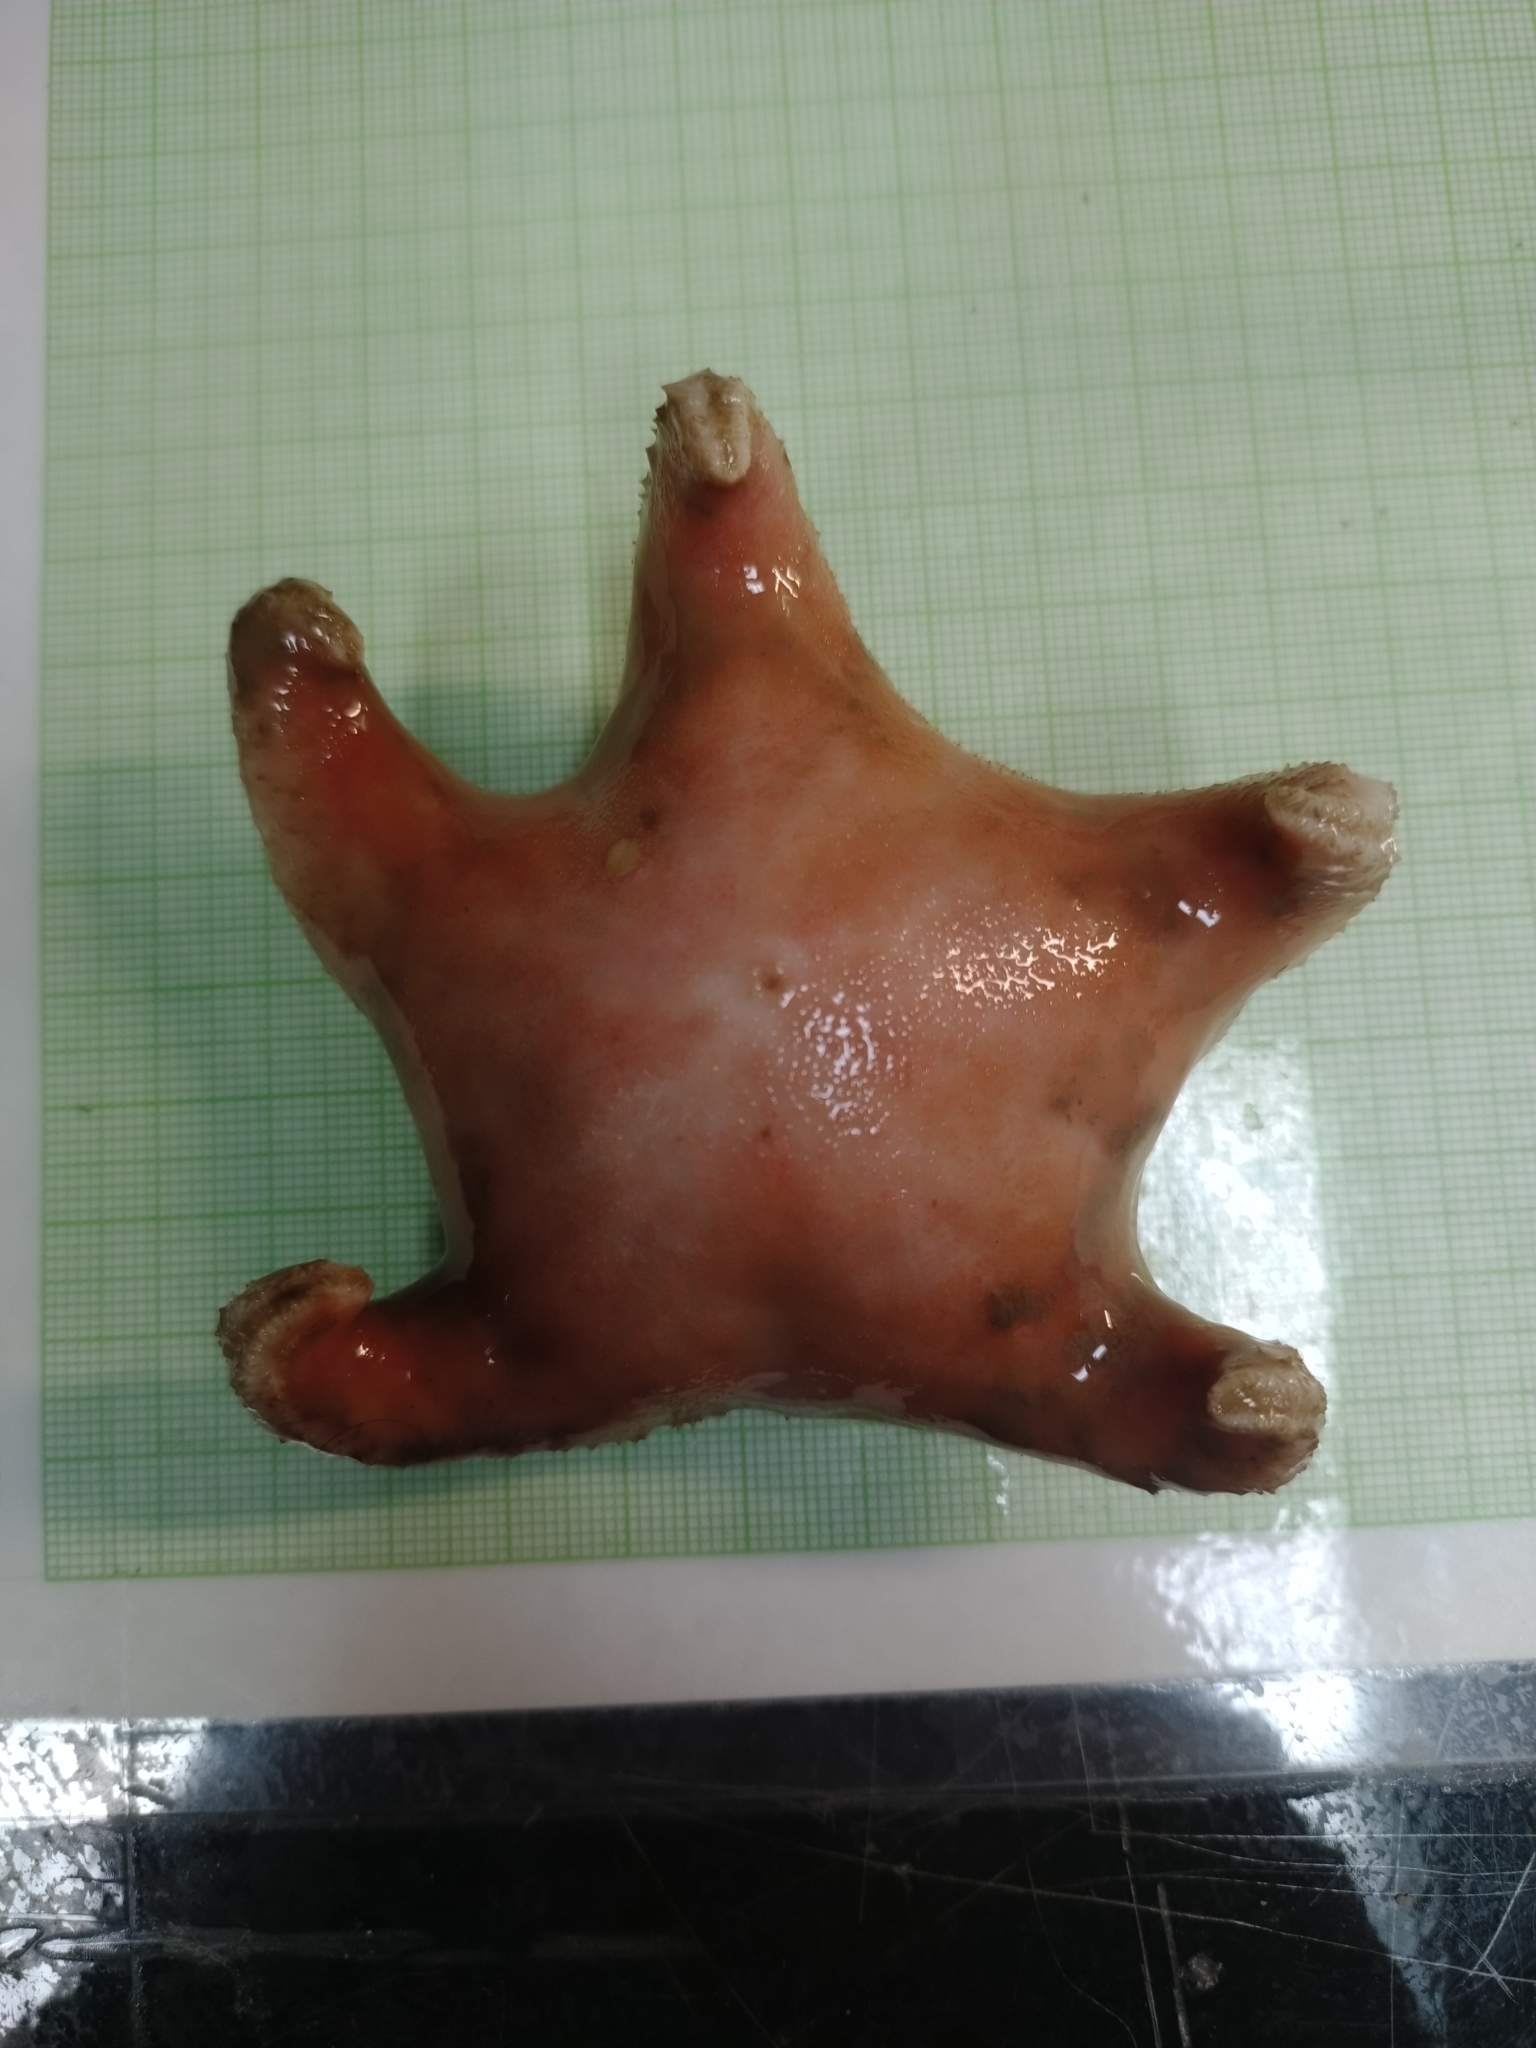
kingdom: Animalia
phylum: Echinodermata
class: Asteroidea
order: Valvatida
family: Poraniidae
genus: Tylaster
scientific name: Tylaster willei
